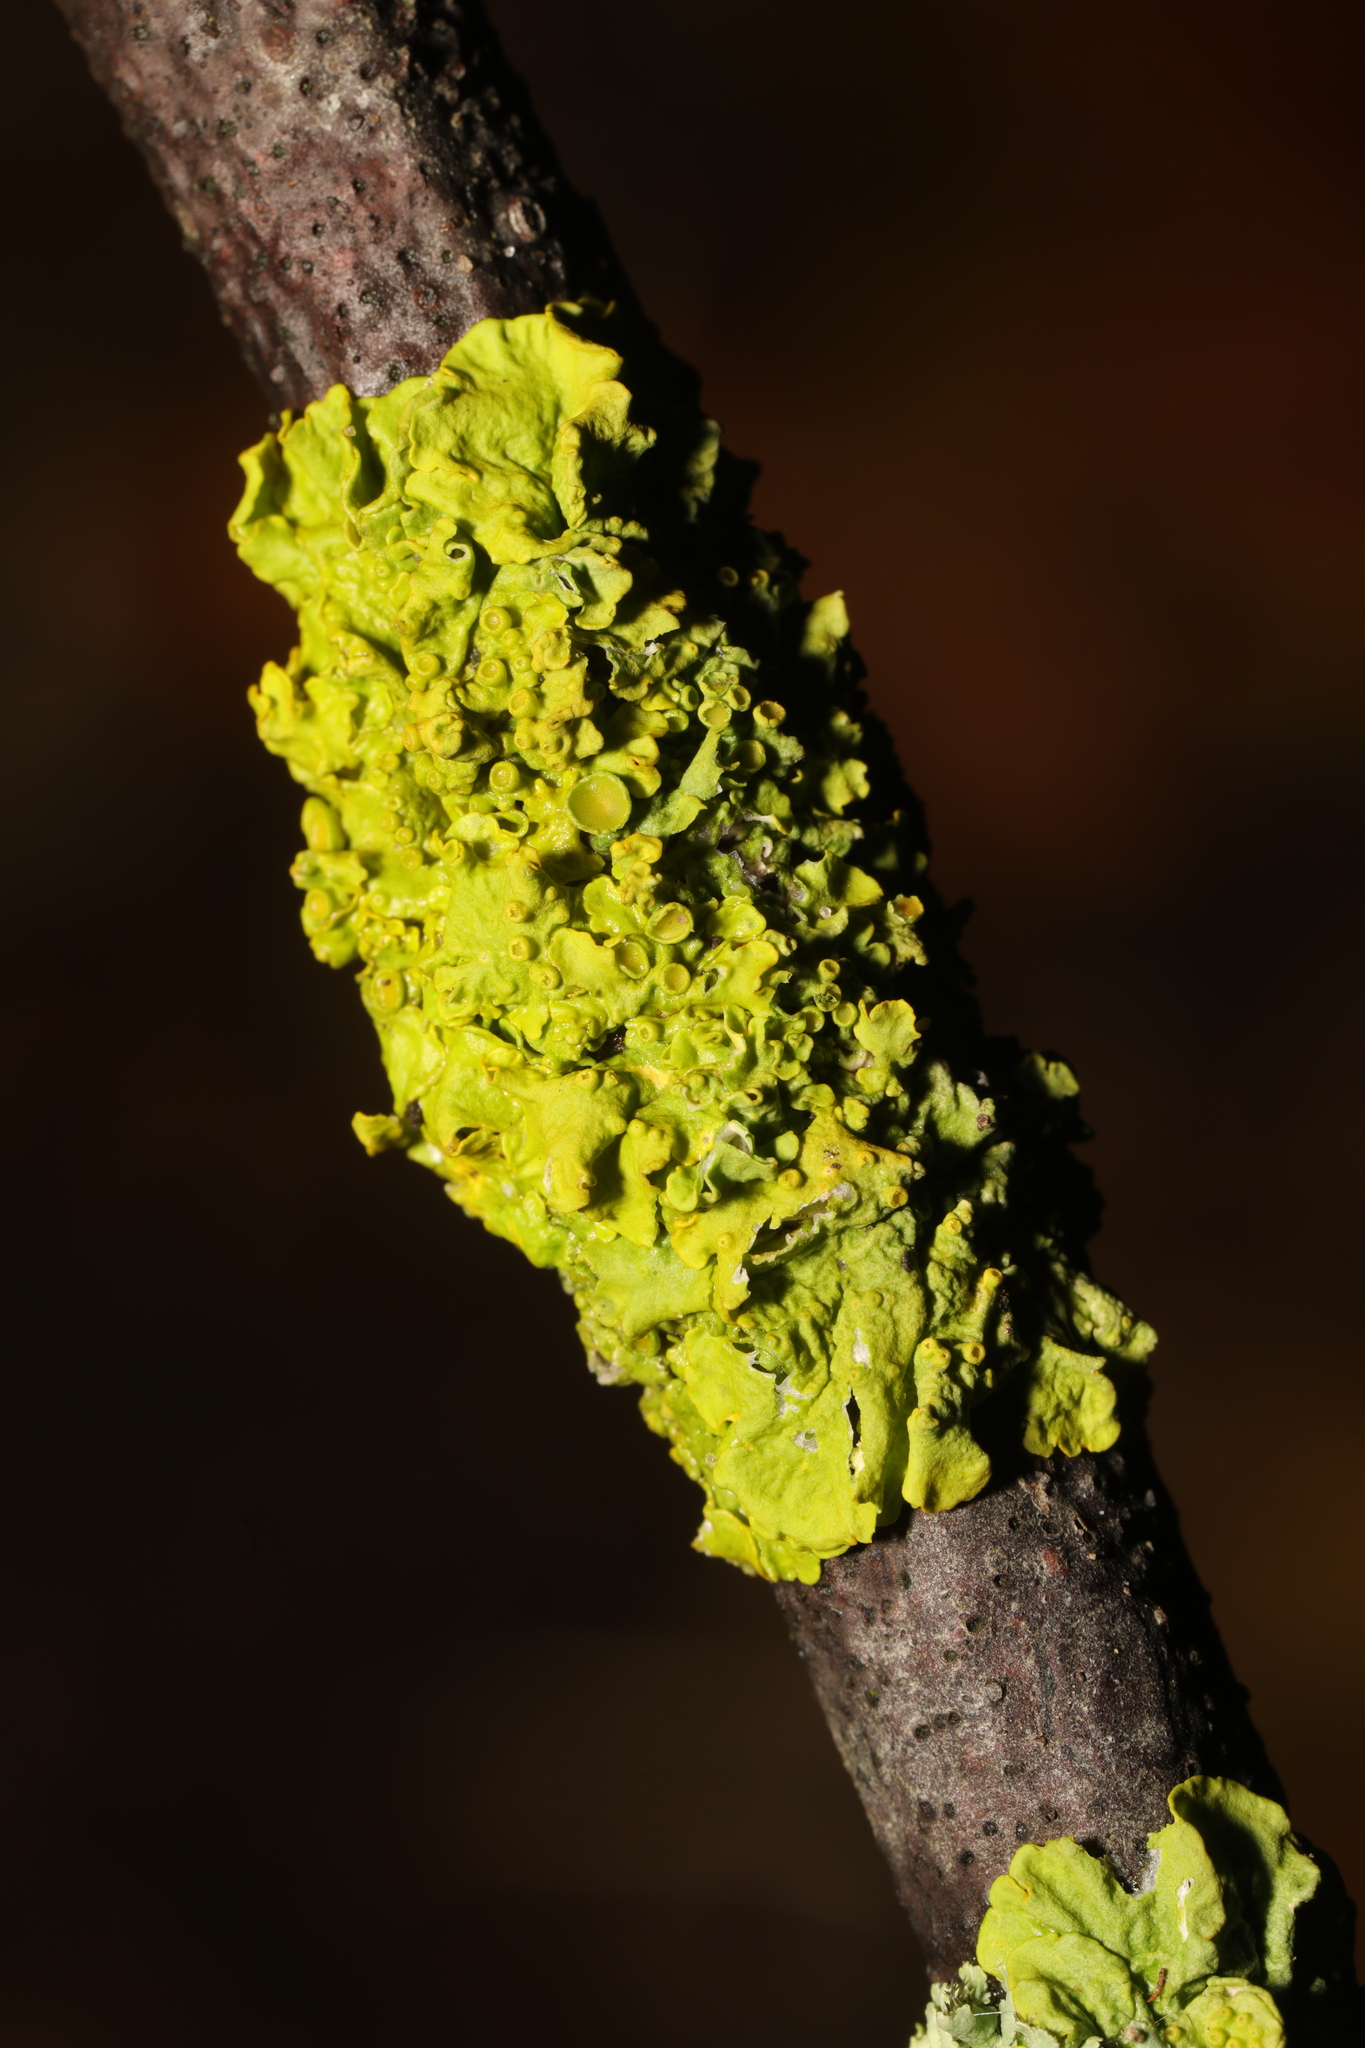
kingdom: Fungi
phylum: Ascomycota
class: Lecanoromycetes
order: Teloschistales
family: Teloschistaceae
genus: Xanthoria
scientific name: Xanthoria parietina
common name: Common orange lichen
